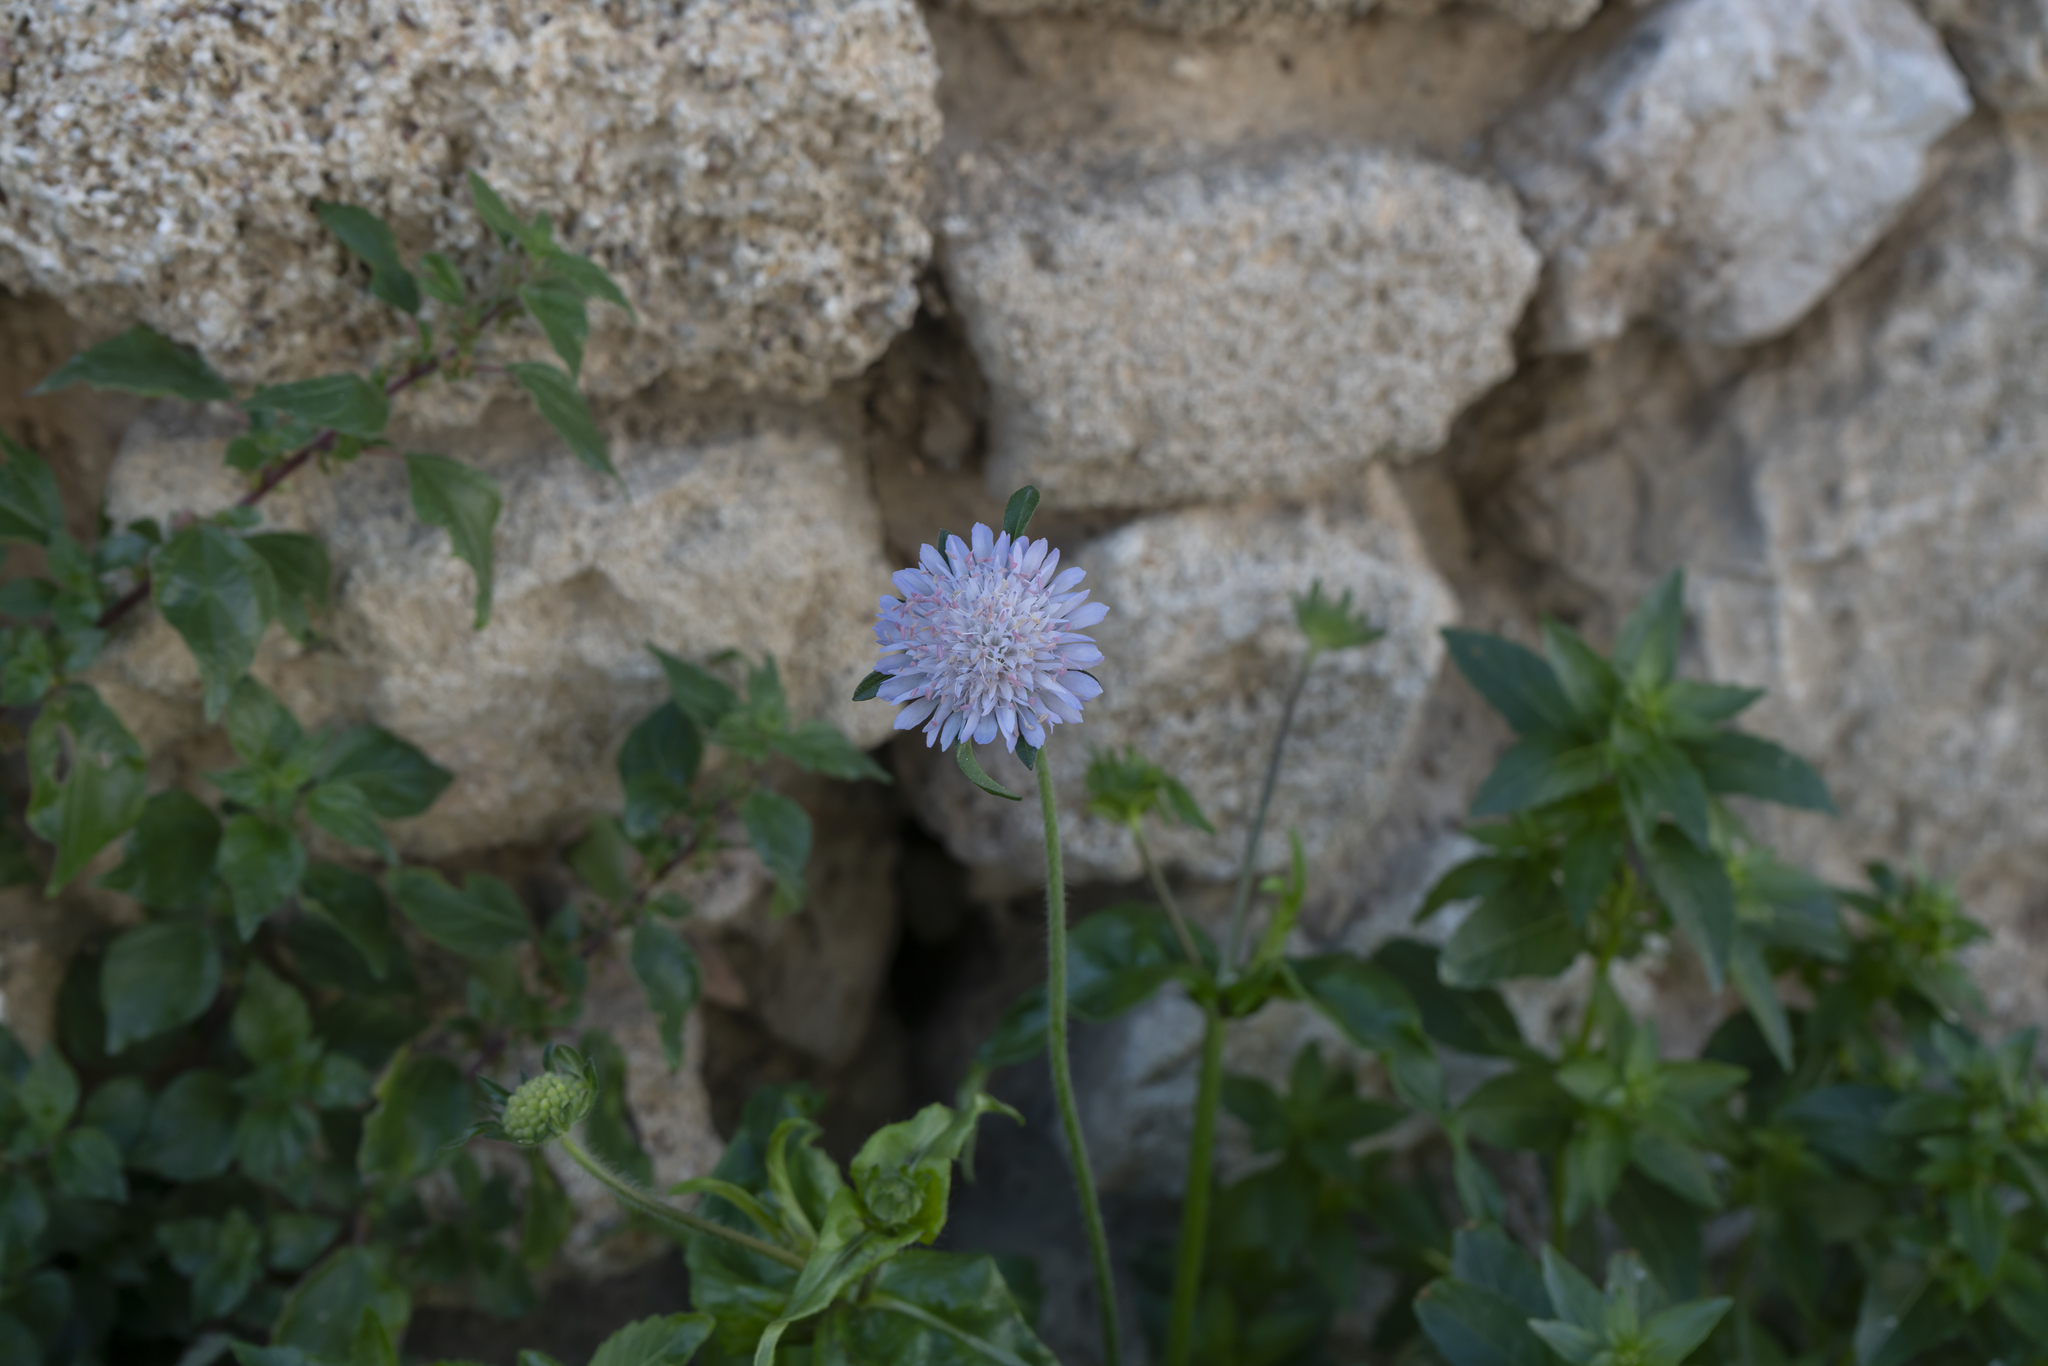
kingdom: Plantae
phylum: Tracheophyta
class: Magnoliopsida
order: Dipsacales
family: Caprifoliaceae
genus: Knautia
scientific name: Knautia integrifolia
